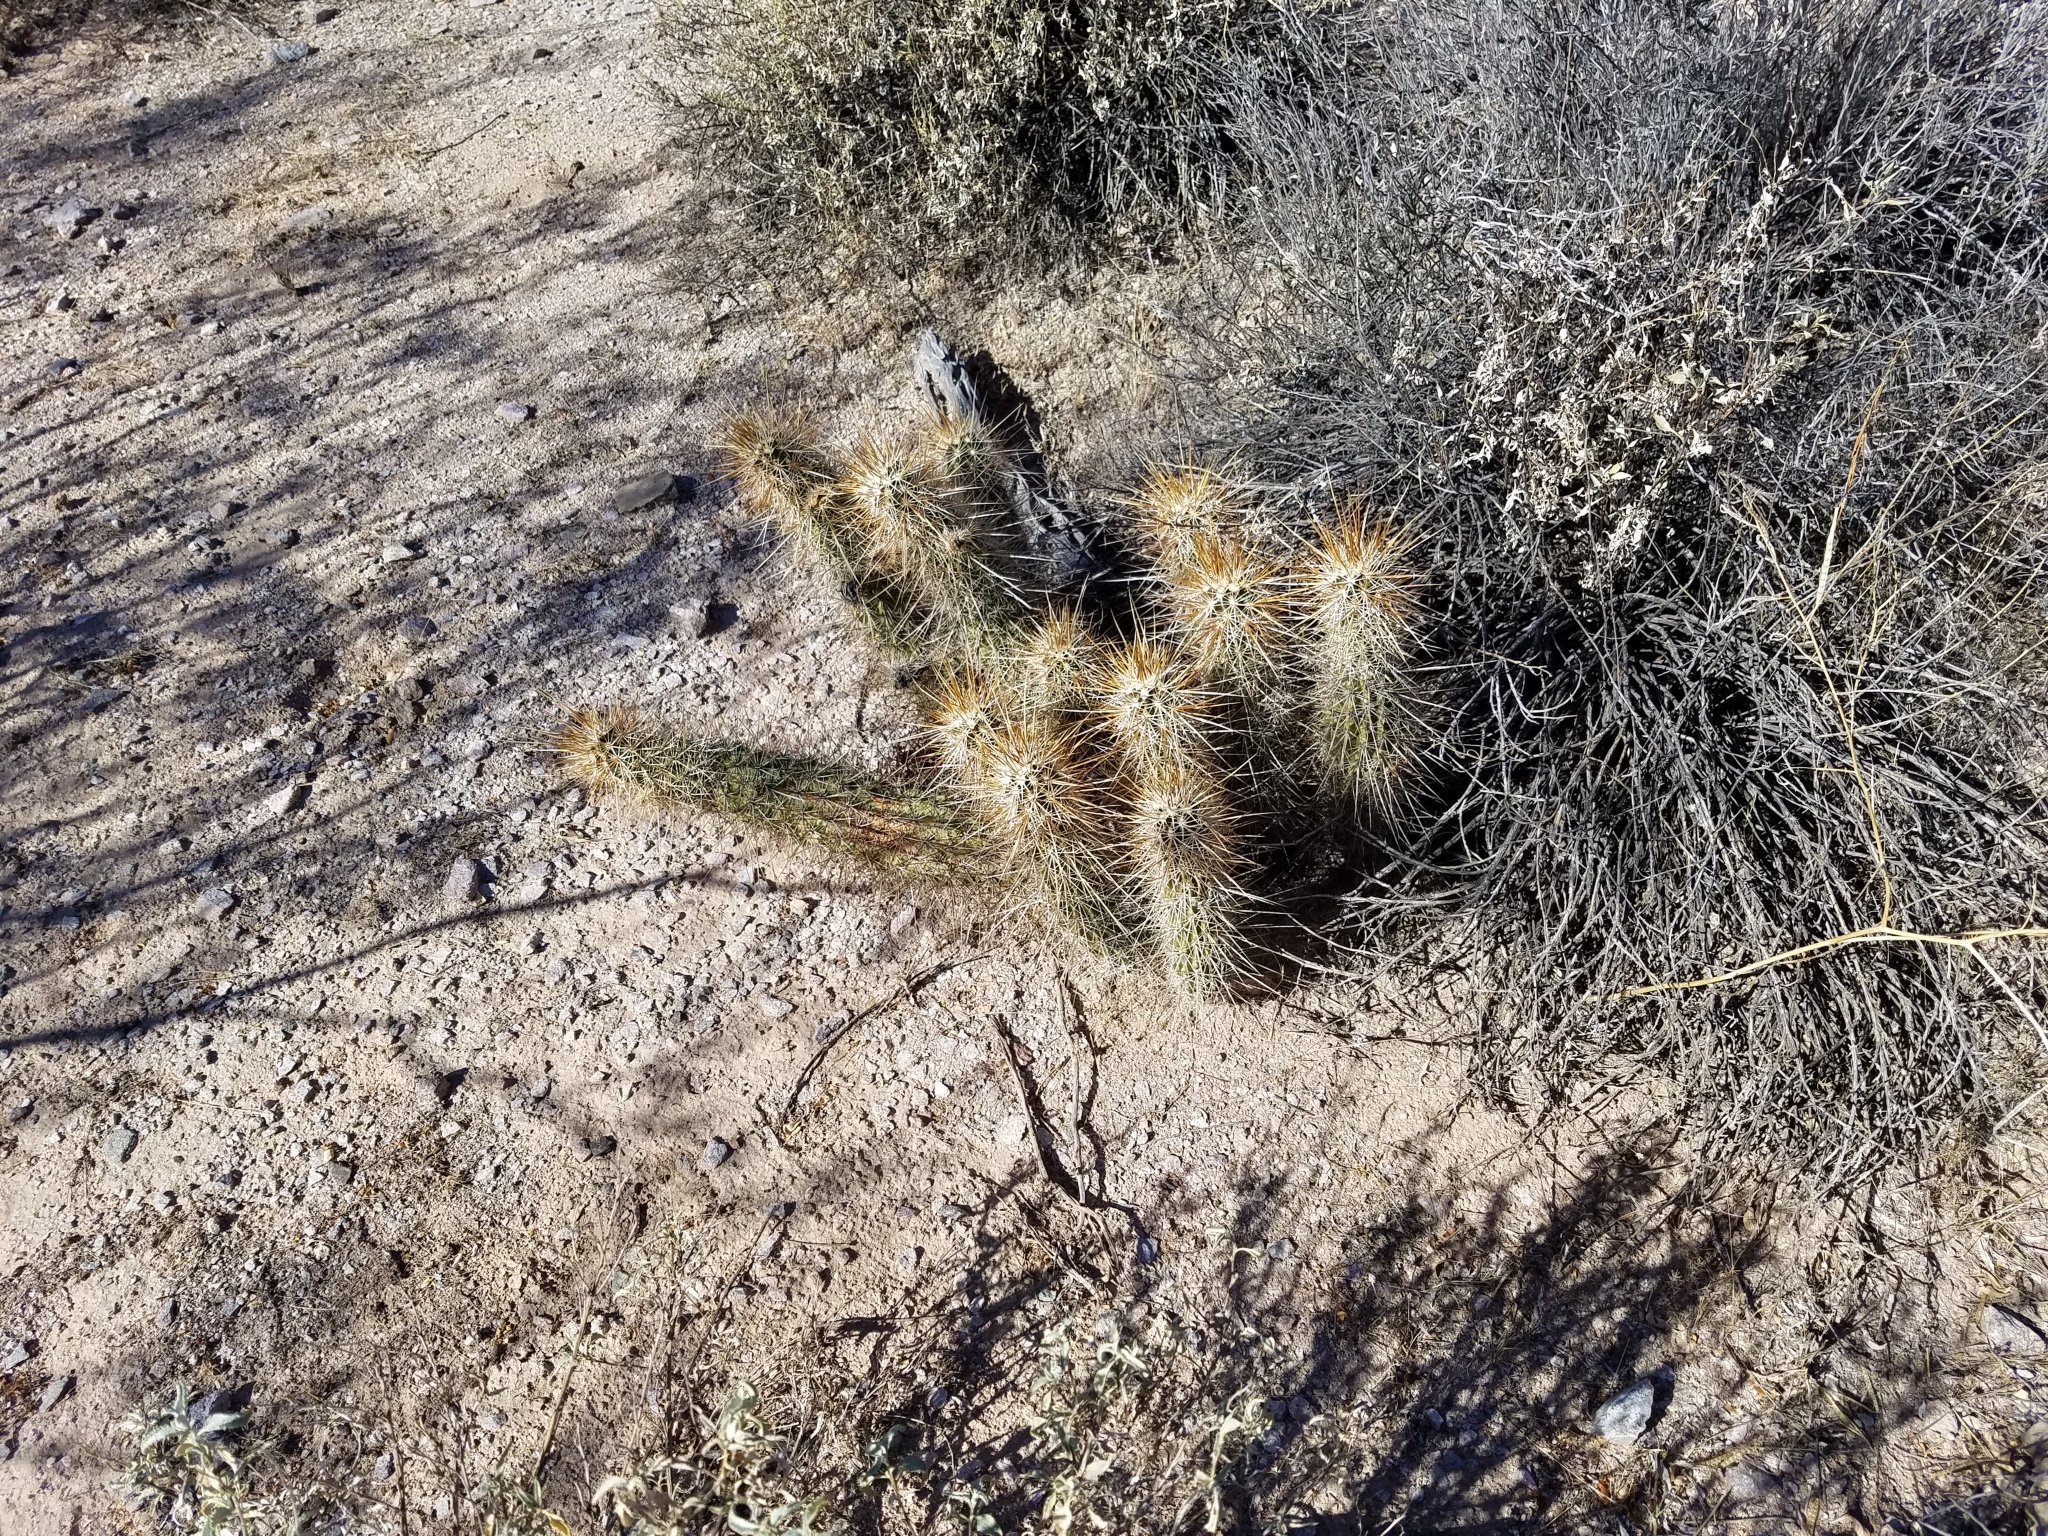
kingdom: Plantae
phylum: Tracheophyta
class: Magnoliopsida
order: Caryophyllales
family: Cactaceae
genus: Echinocereus
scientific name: Echinocereus engelmannii
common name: Engelmann's hedgehog cactus
